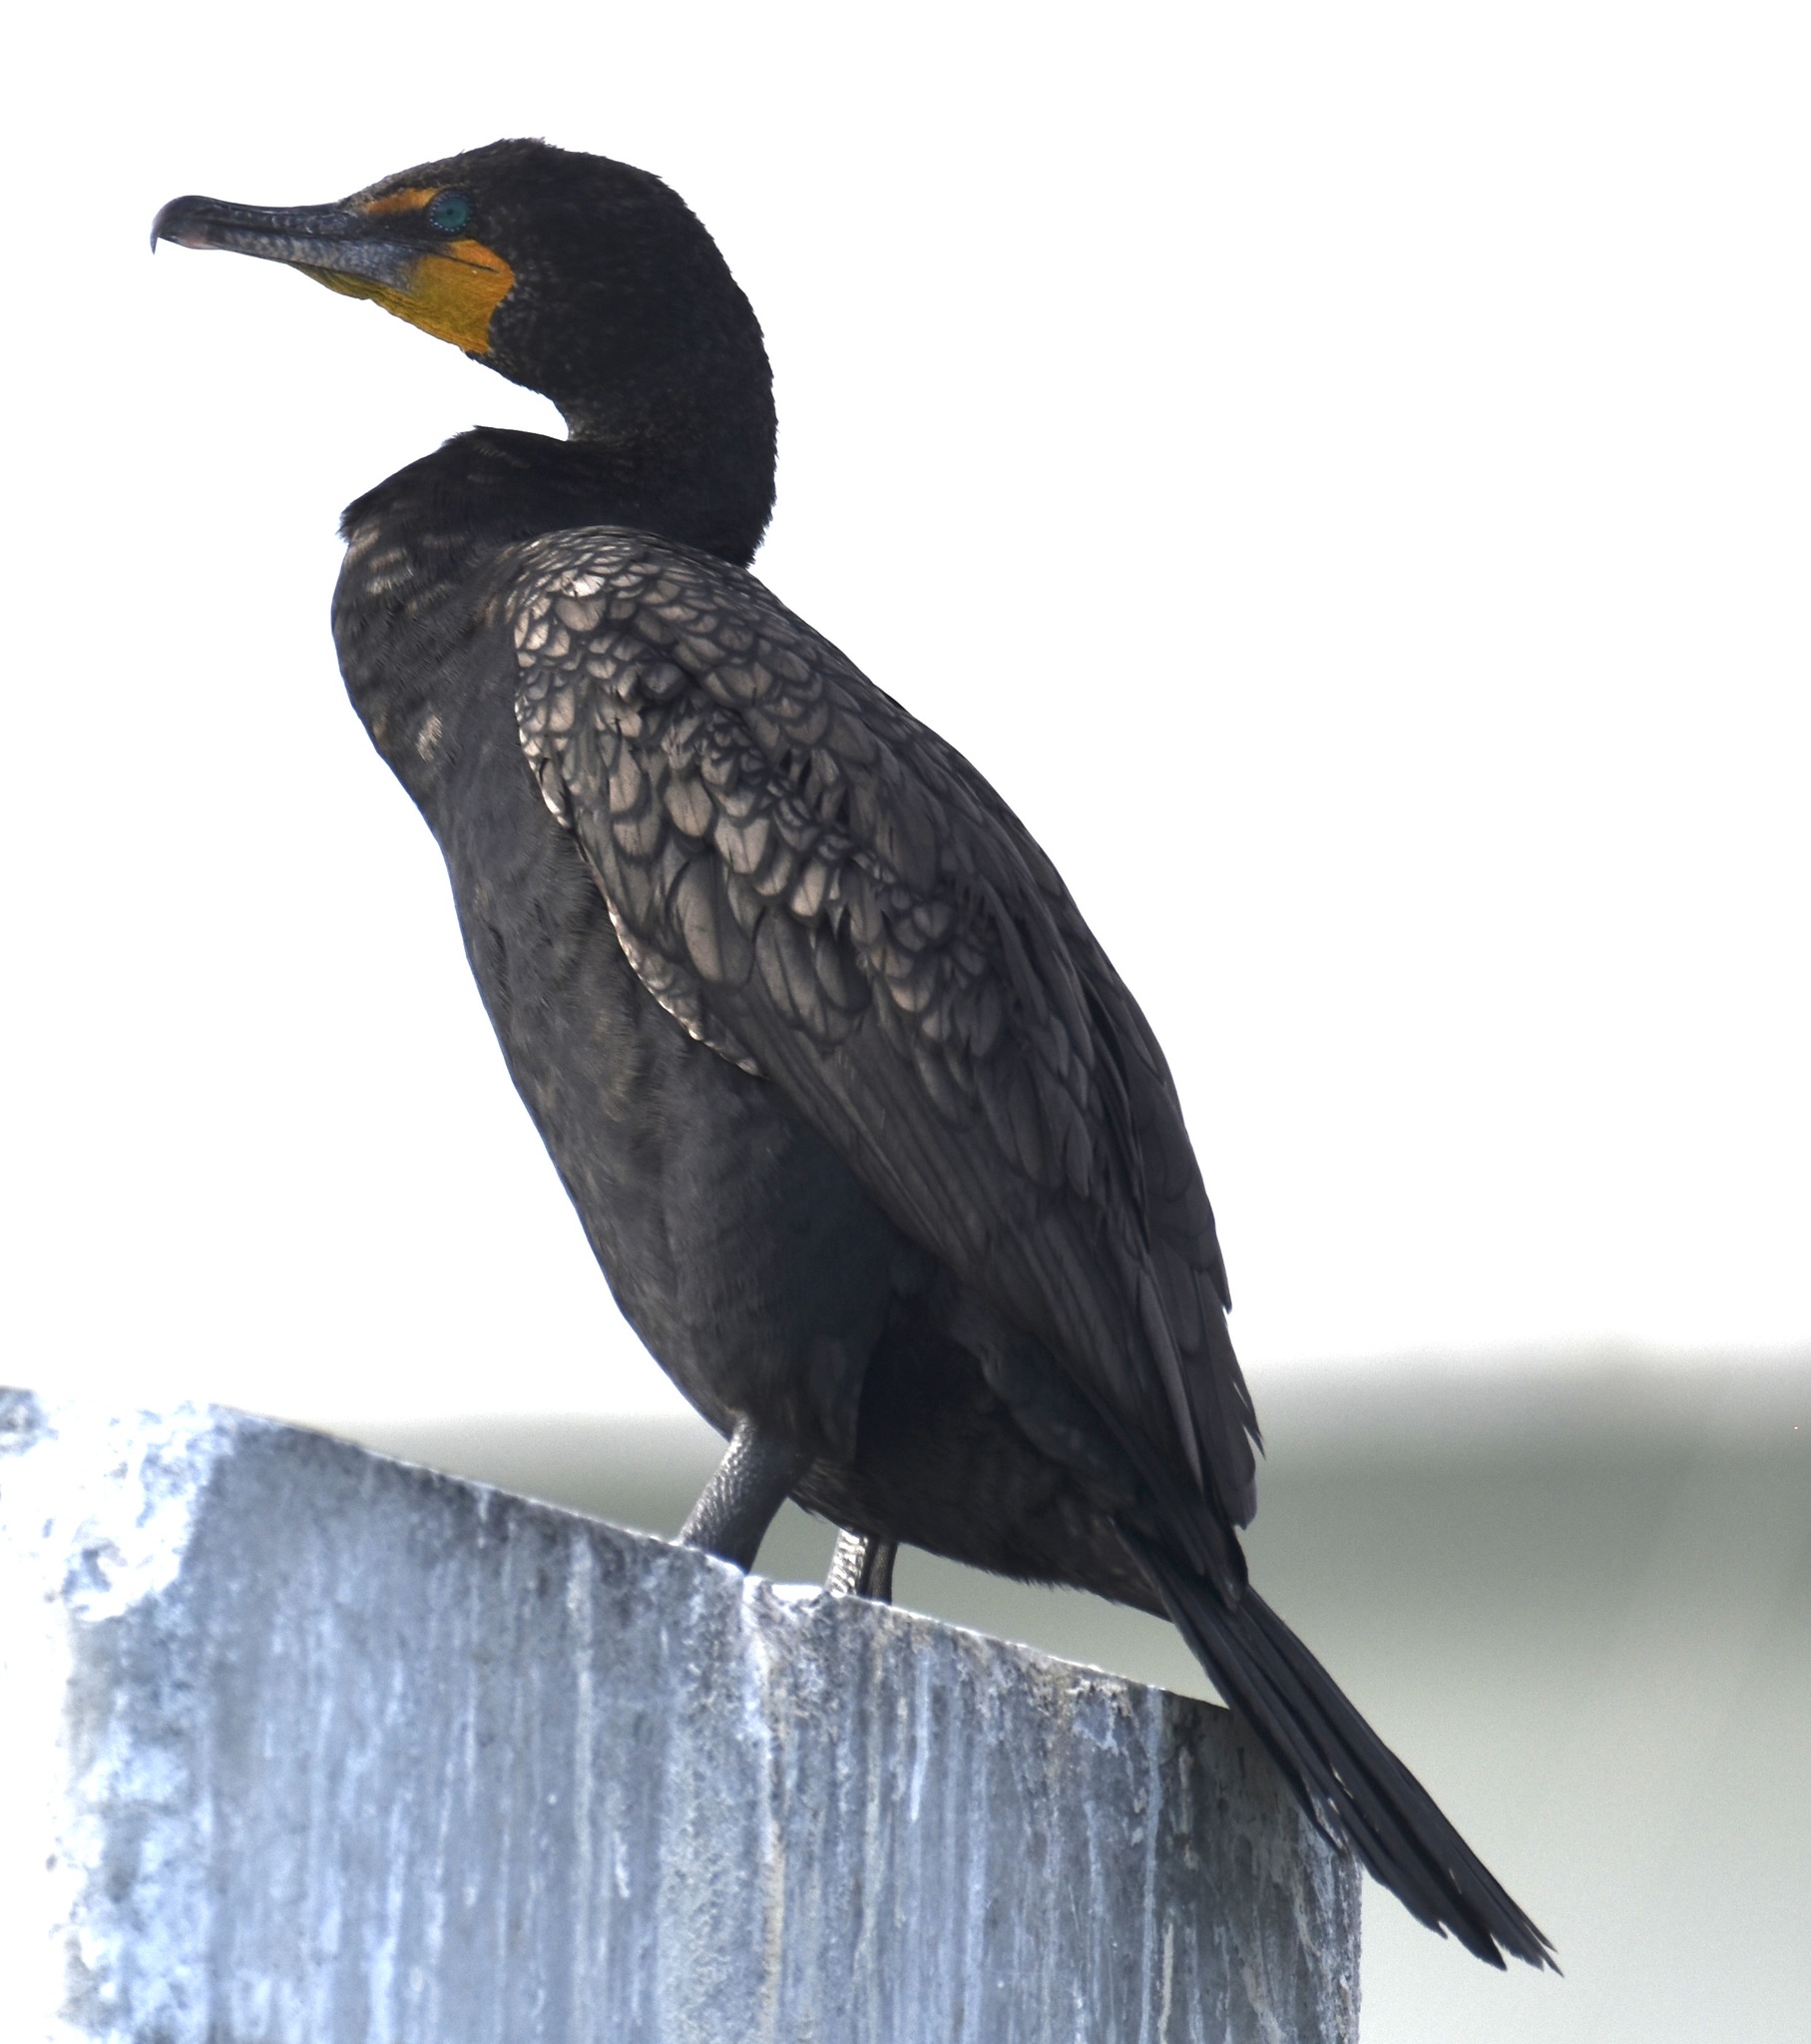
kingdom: Animalia
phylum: Chordata
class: Aves
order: Suliformes
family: Phalacrocoracidae
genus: Phalacrocorax
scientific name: Phalacrocorax auritus
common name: Double-crested cormorant
